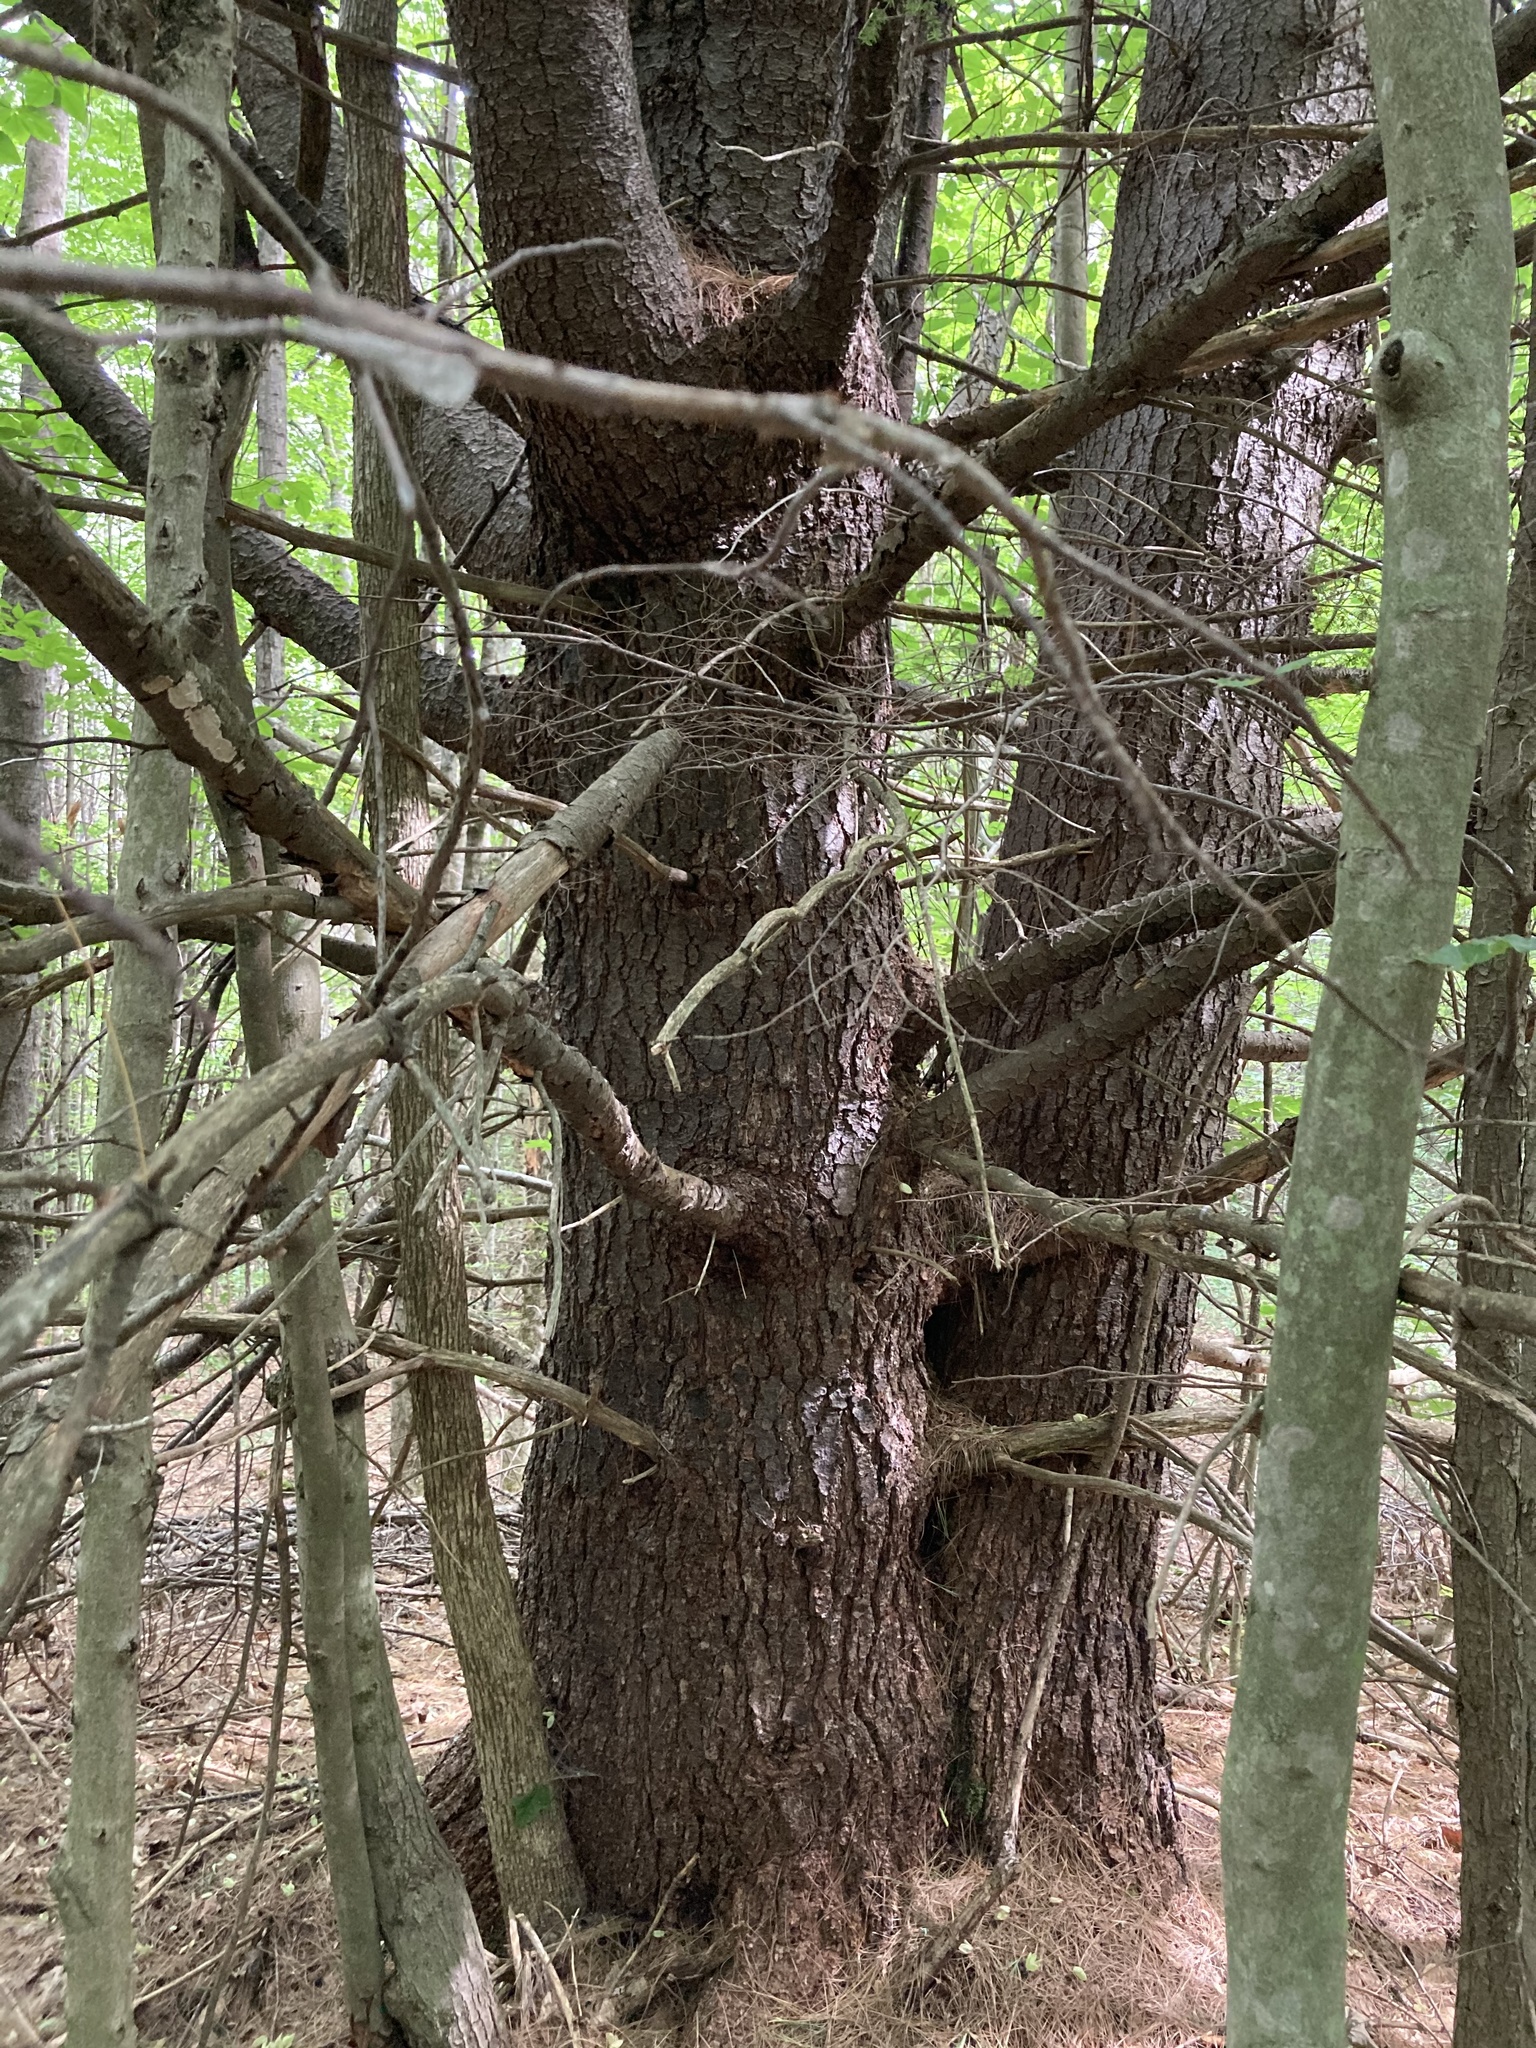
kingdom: Plantae
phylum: Tracheophyta
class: Pinopsida
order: Pinales
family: Pinaceae
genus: Pinus
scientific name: Pinus strobus
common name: Weymouth pine
